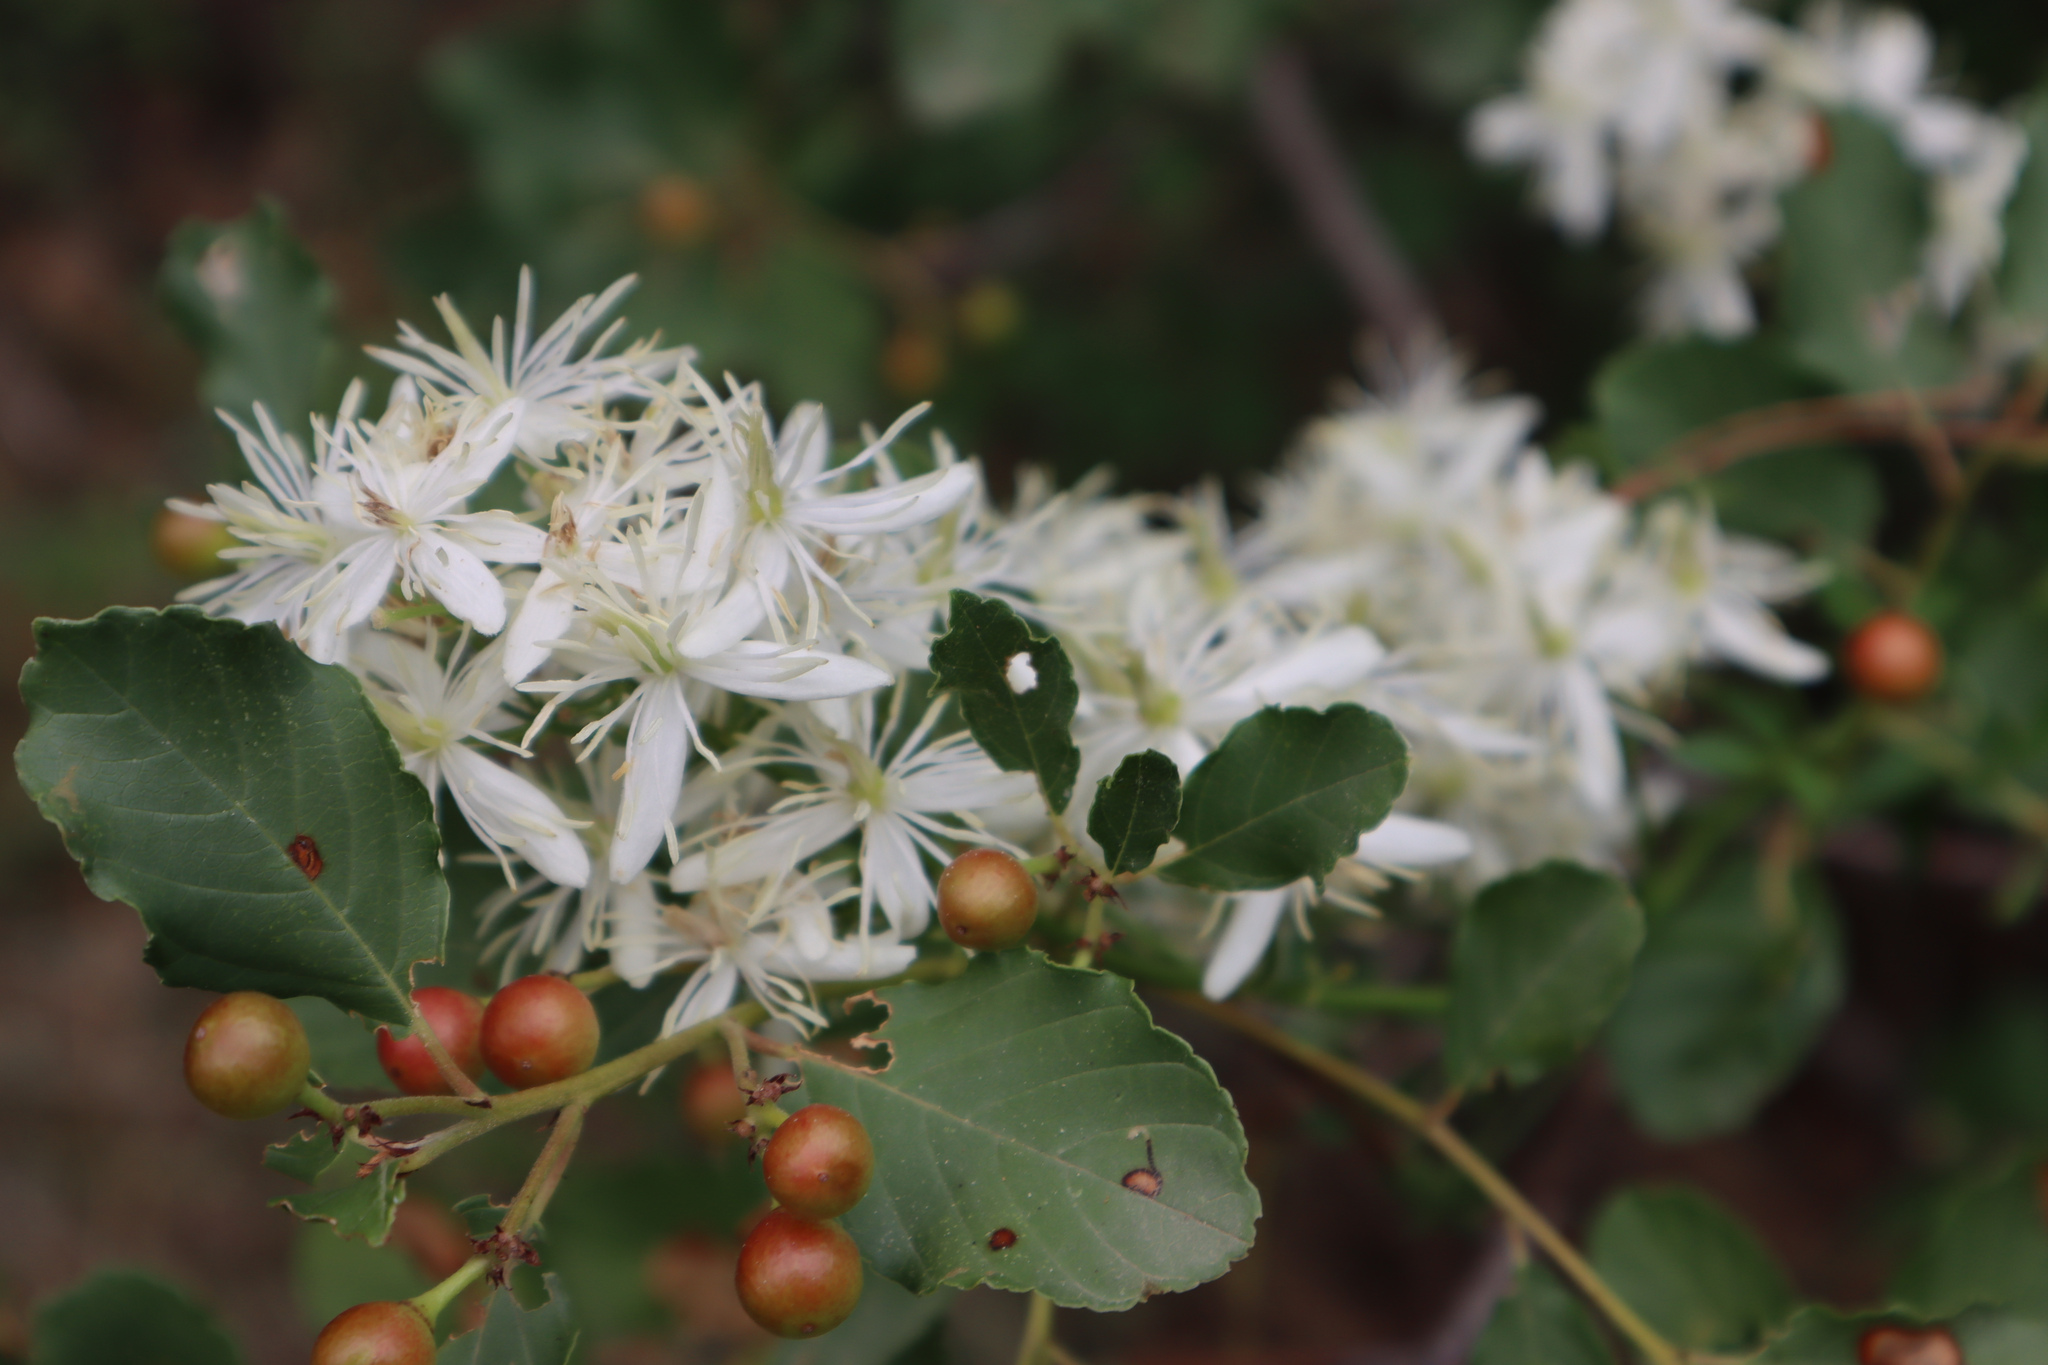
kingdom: Plantae
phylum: Tracheophyta
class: Magnoliopsida
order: Ranunculales
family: Ranunculaceae
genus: Clematis
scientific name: Clematis flammula
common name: Virgin's-bower
